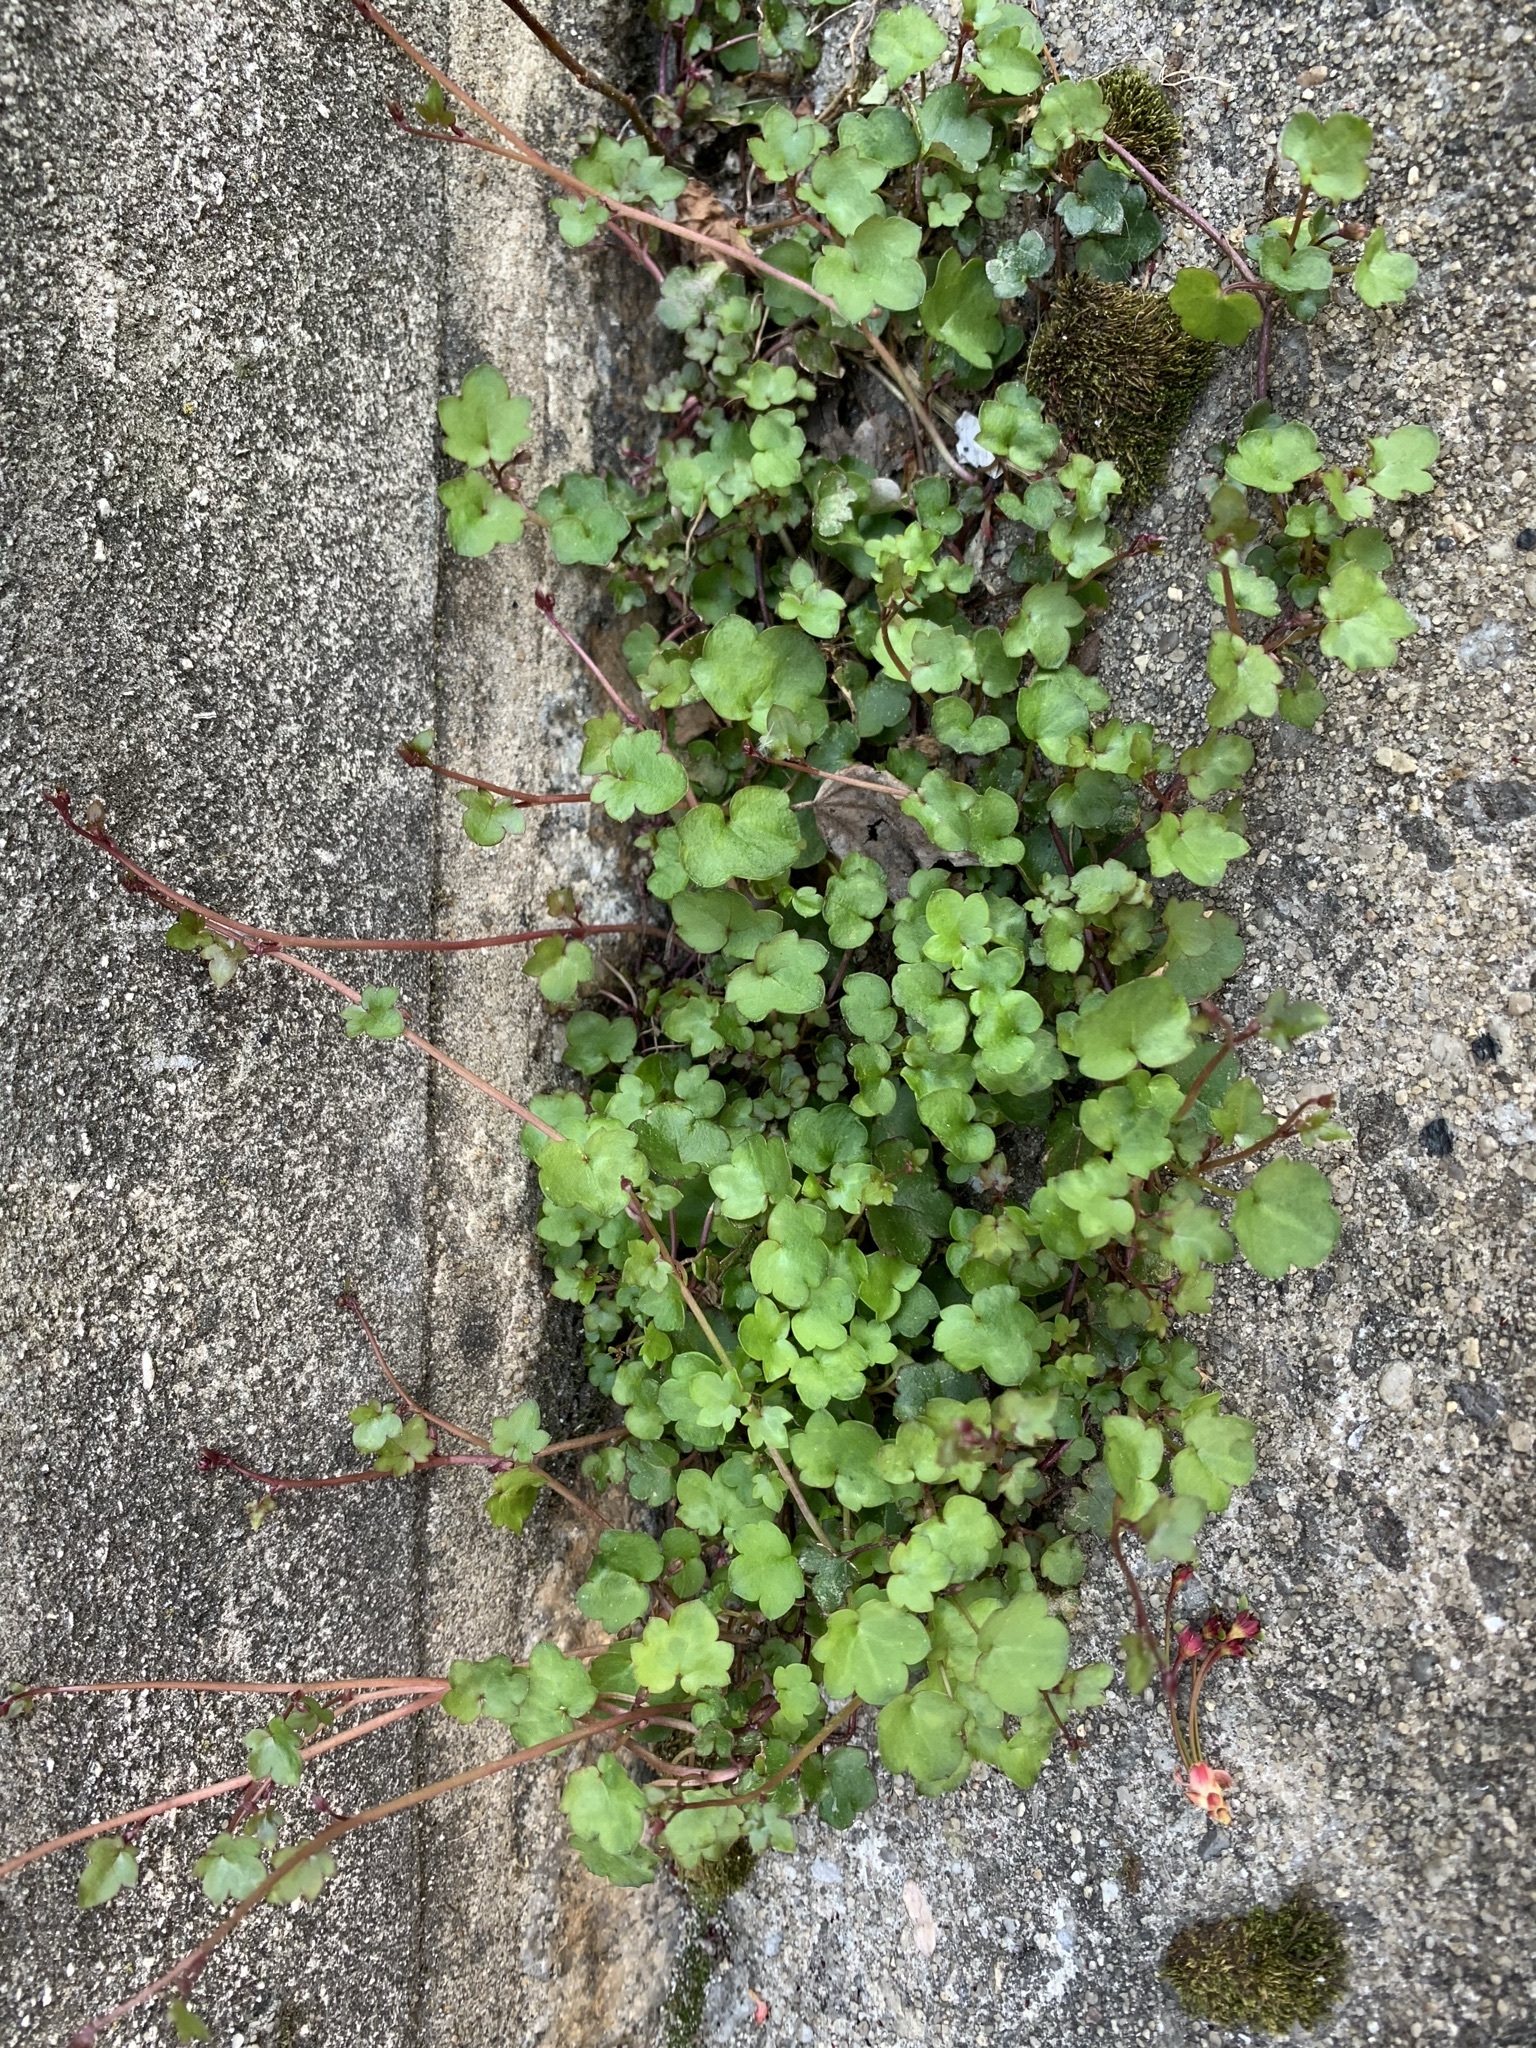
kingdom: Plantae
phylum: Tracheophyta
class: Magnoliopsida
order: Lamiales
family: Plantaginaceae
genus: Cymbalaria
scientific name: Cymbalaria muralis
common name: Ivy-leaved toadflax
